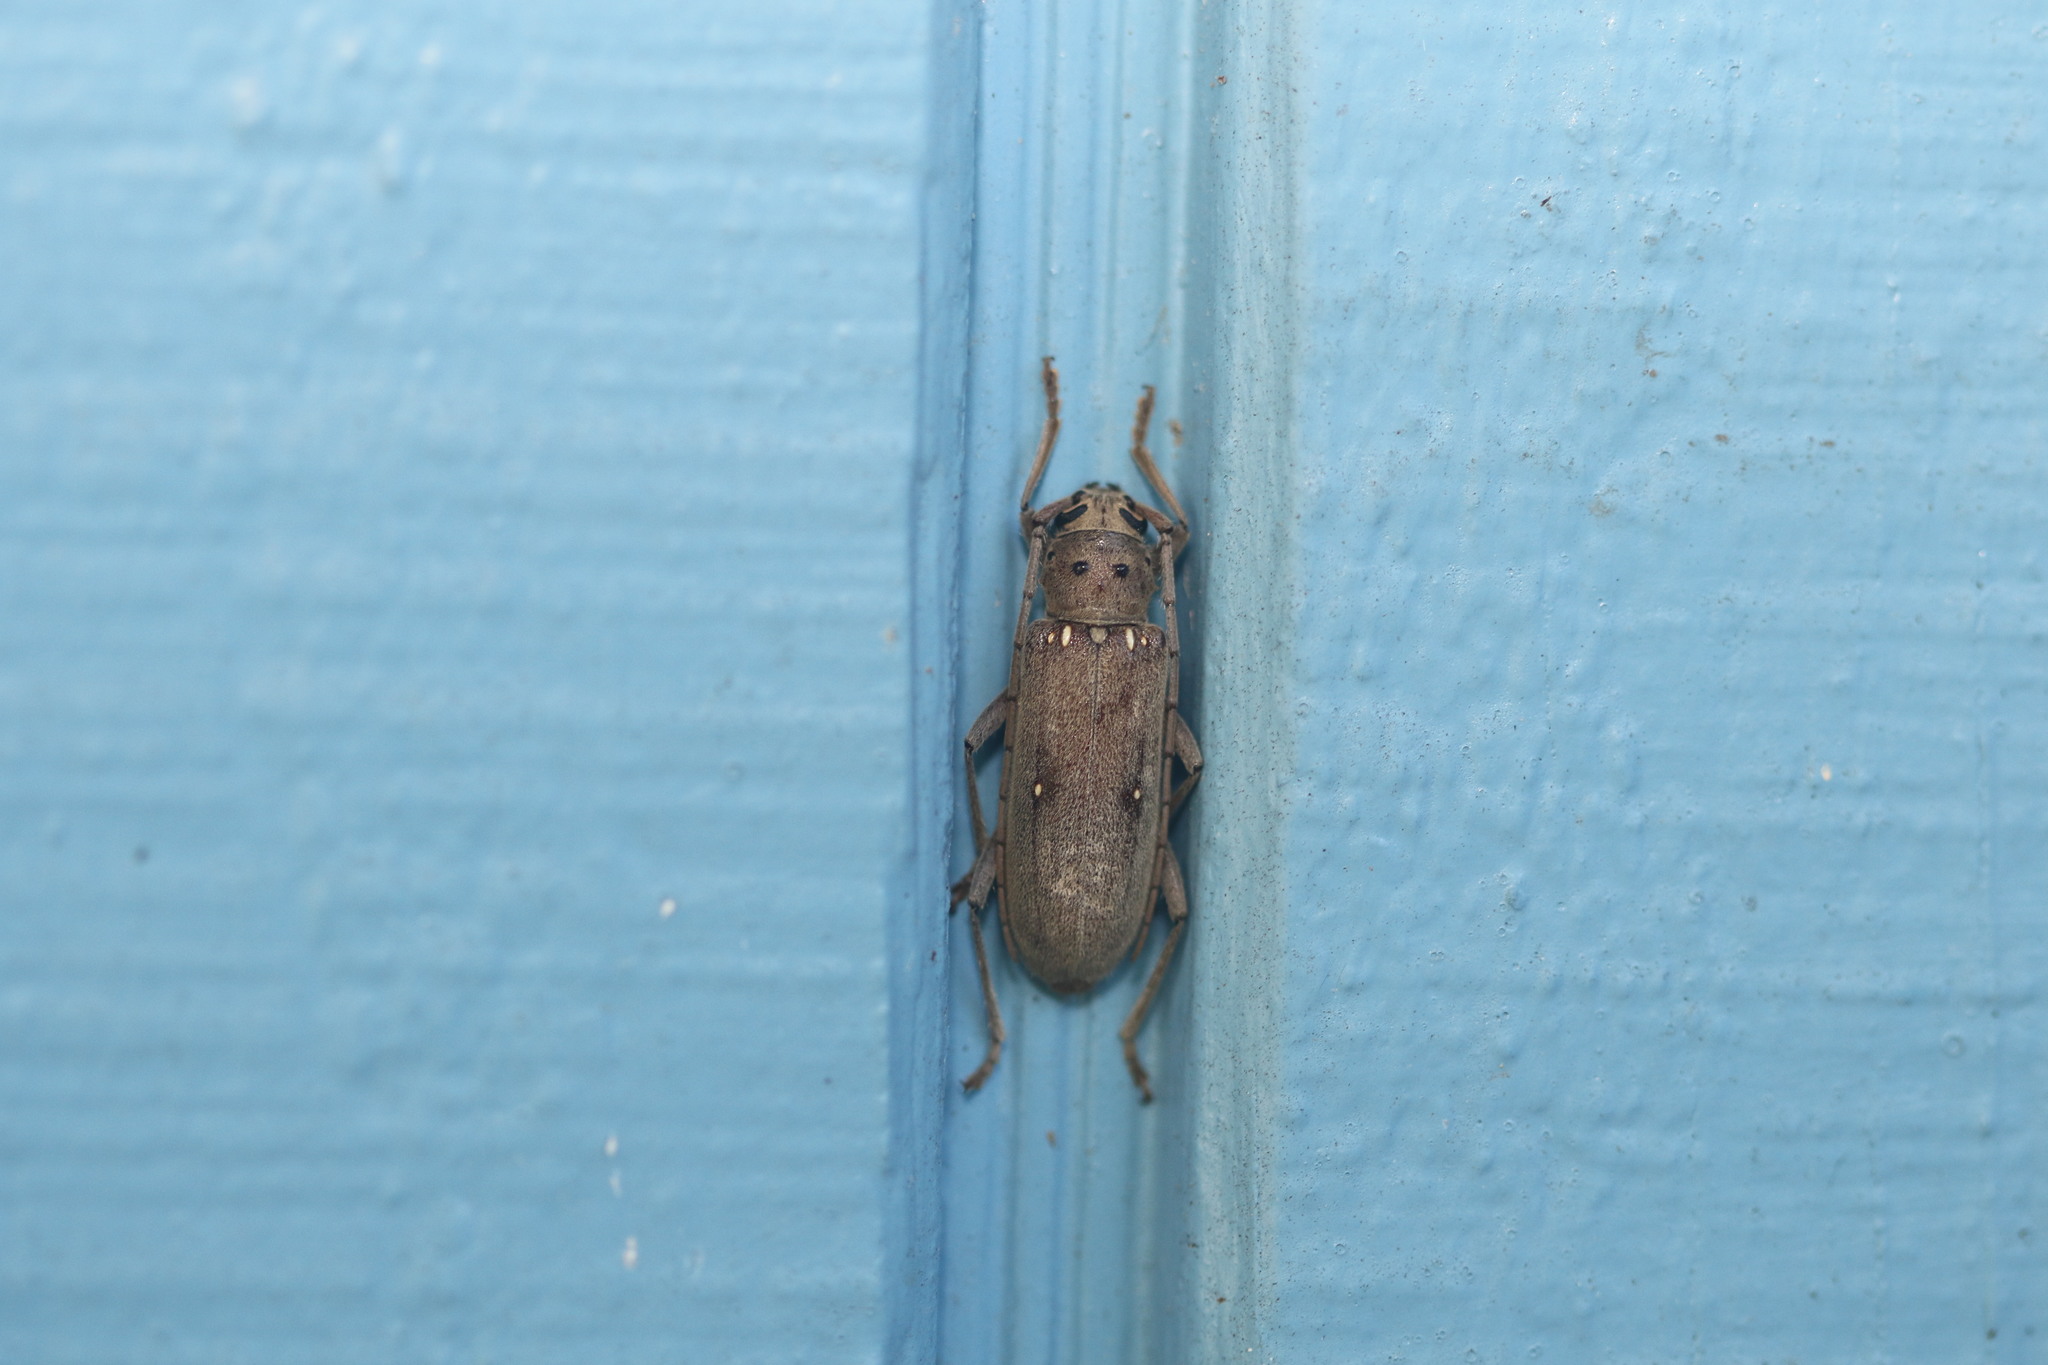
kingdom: Animalia
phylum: Arthropoda
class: Insecta
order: Coleoptera
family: Cerambycidae
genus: Eburia
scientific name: Eburia mutica
